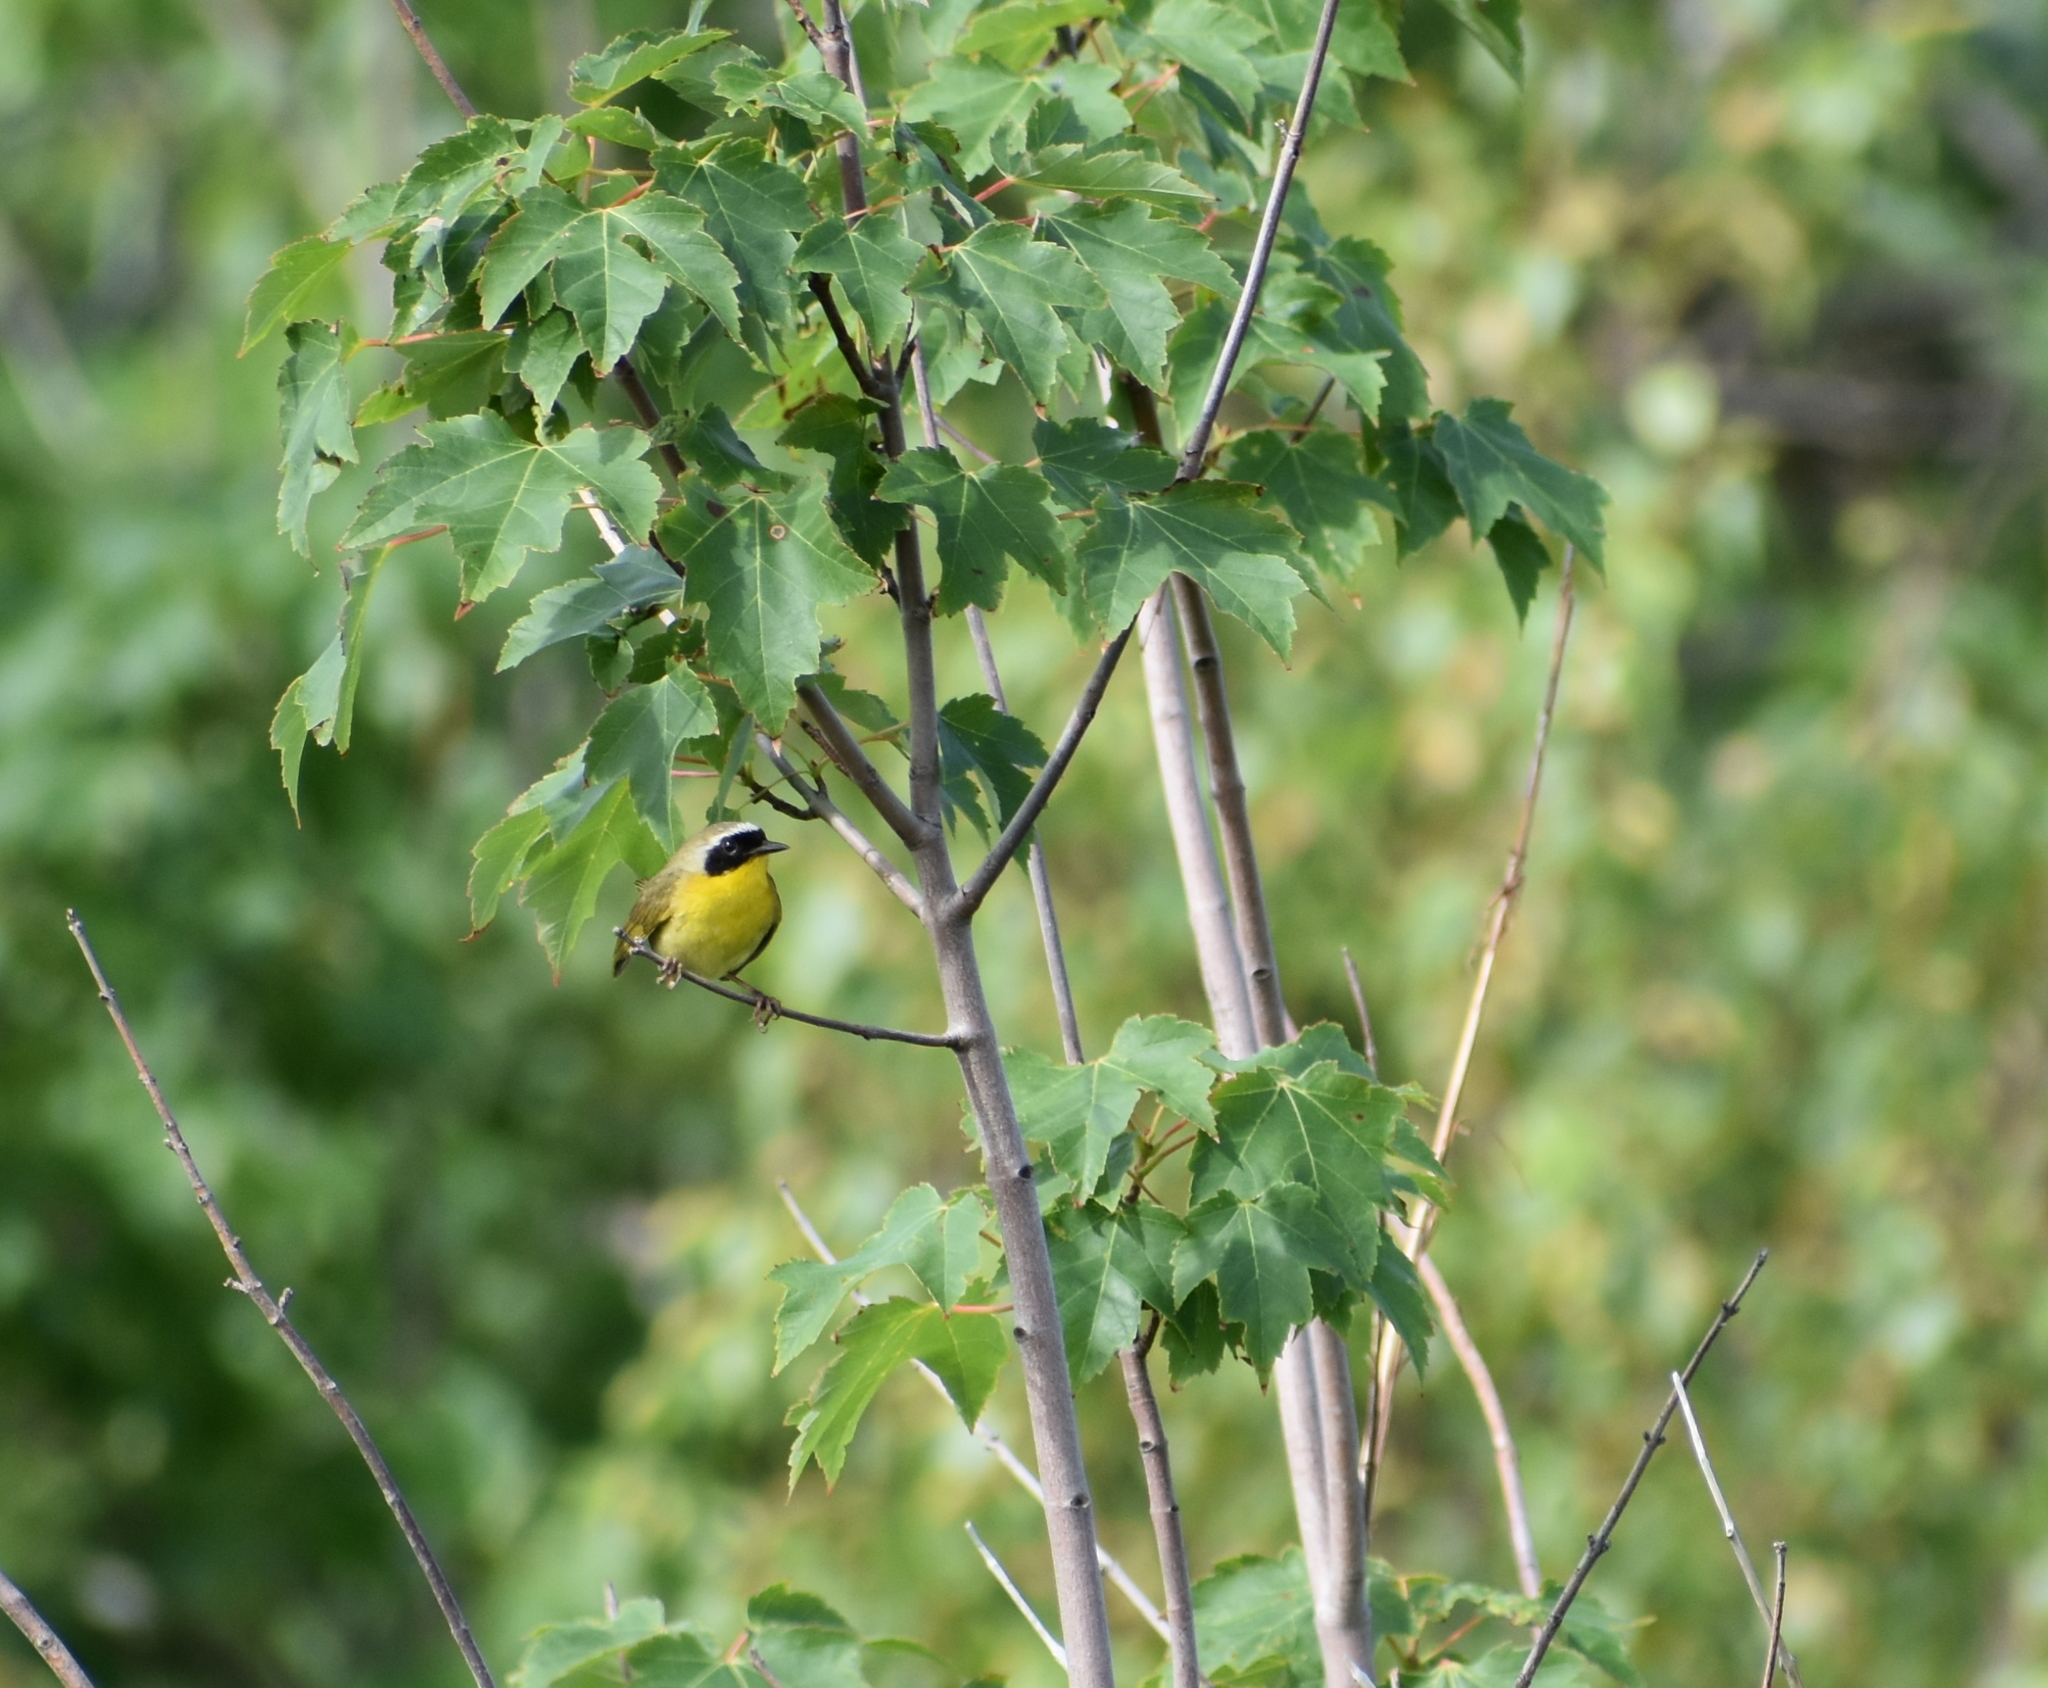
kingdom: Animalia
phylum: Chordata
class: Aves
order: Passeriformes
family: Parulidae
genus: Geothlypis
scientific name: Geothlypis trichas
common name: Common yellowthroat
